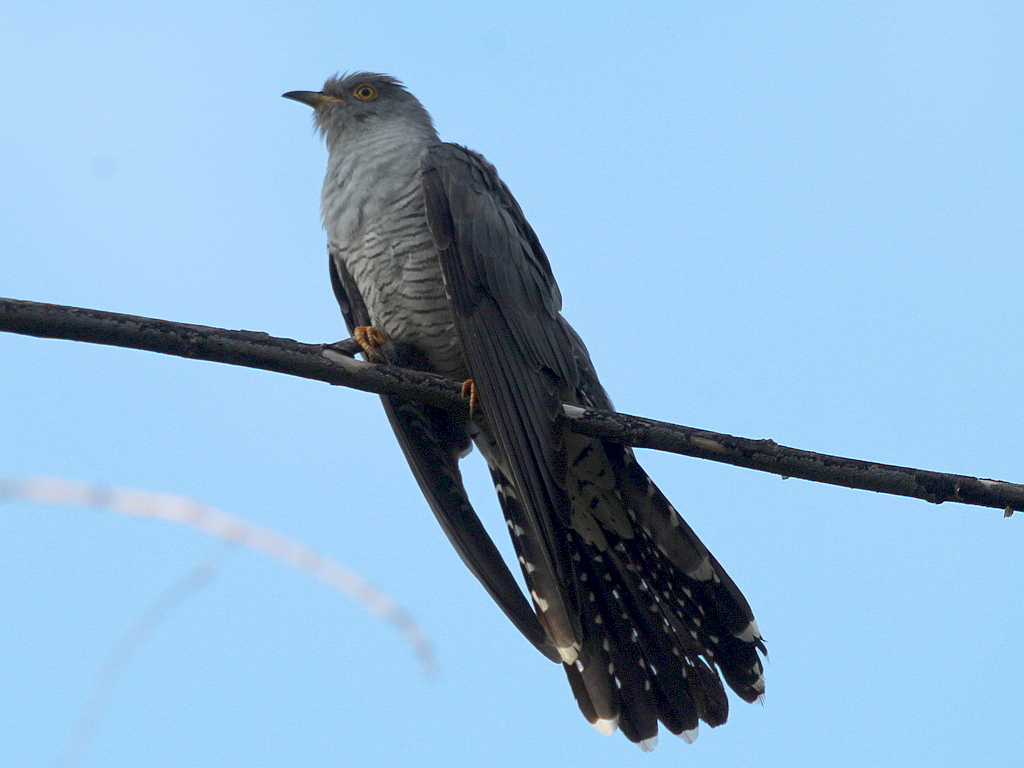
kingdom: Animalia
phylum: Chordata
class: Aves
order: Cuculiformes
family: Cuculidae
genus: Cuculus
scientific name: Cuculus canorus
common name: Common cuckoo
